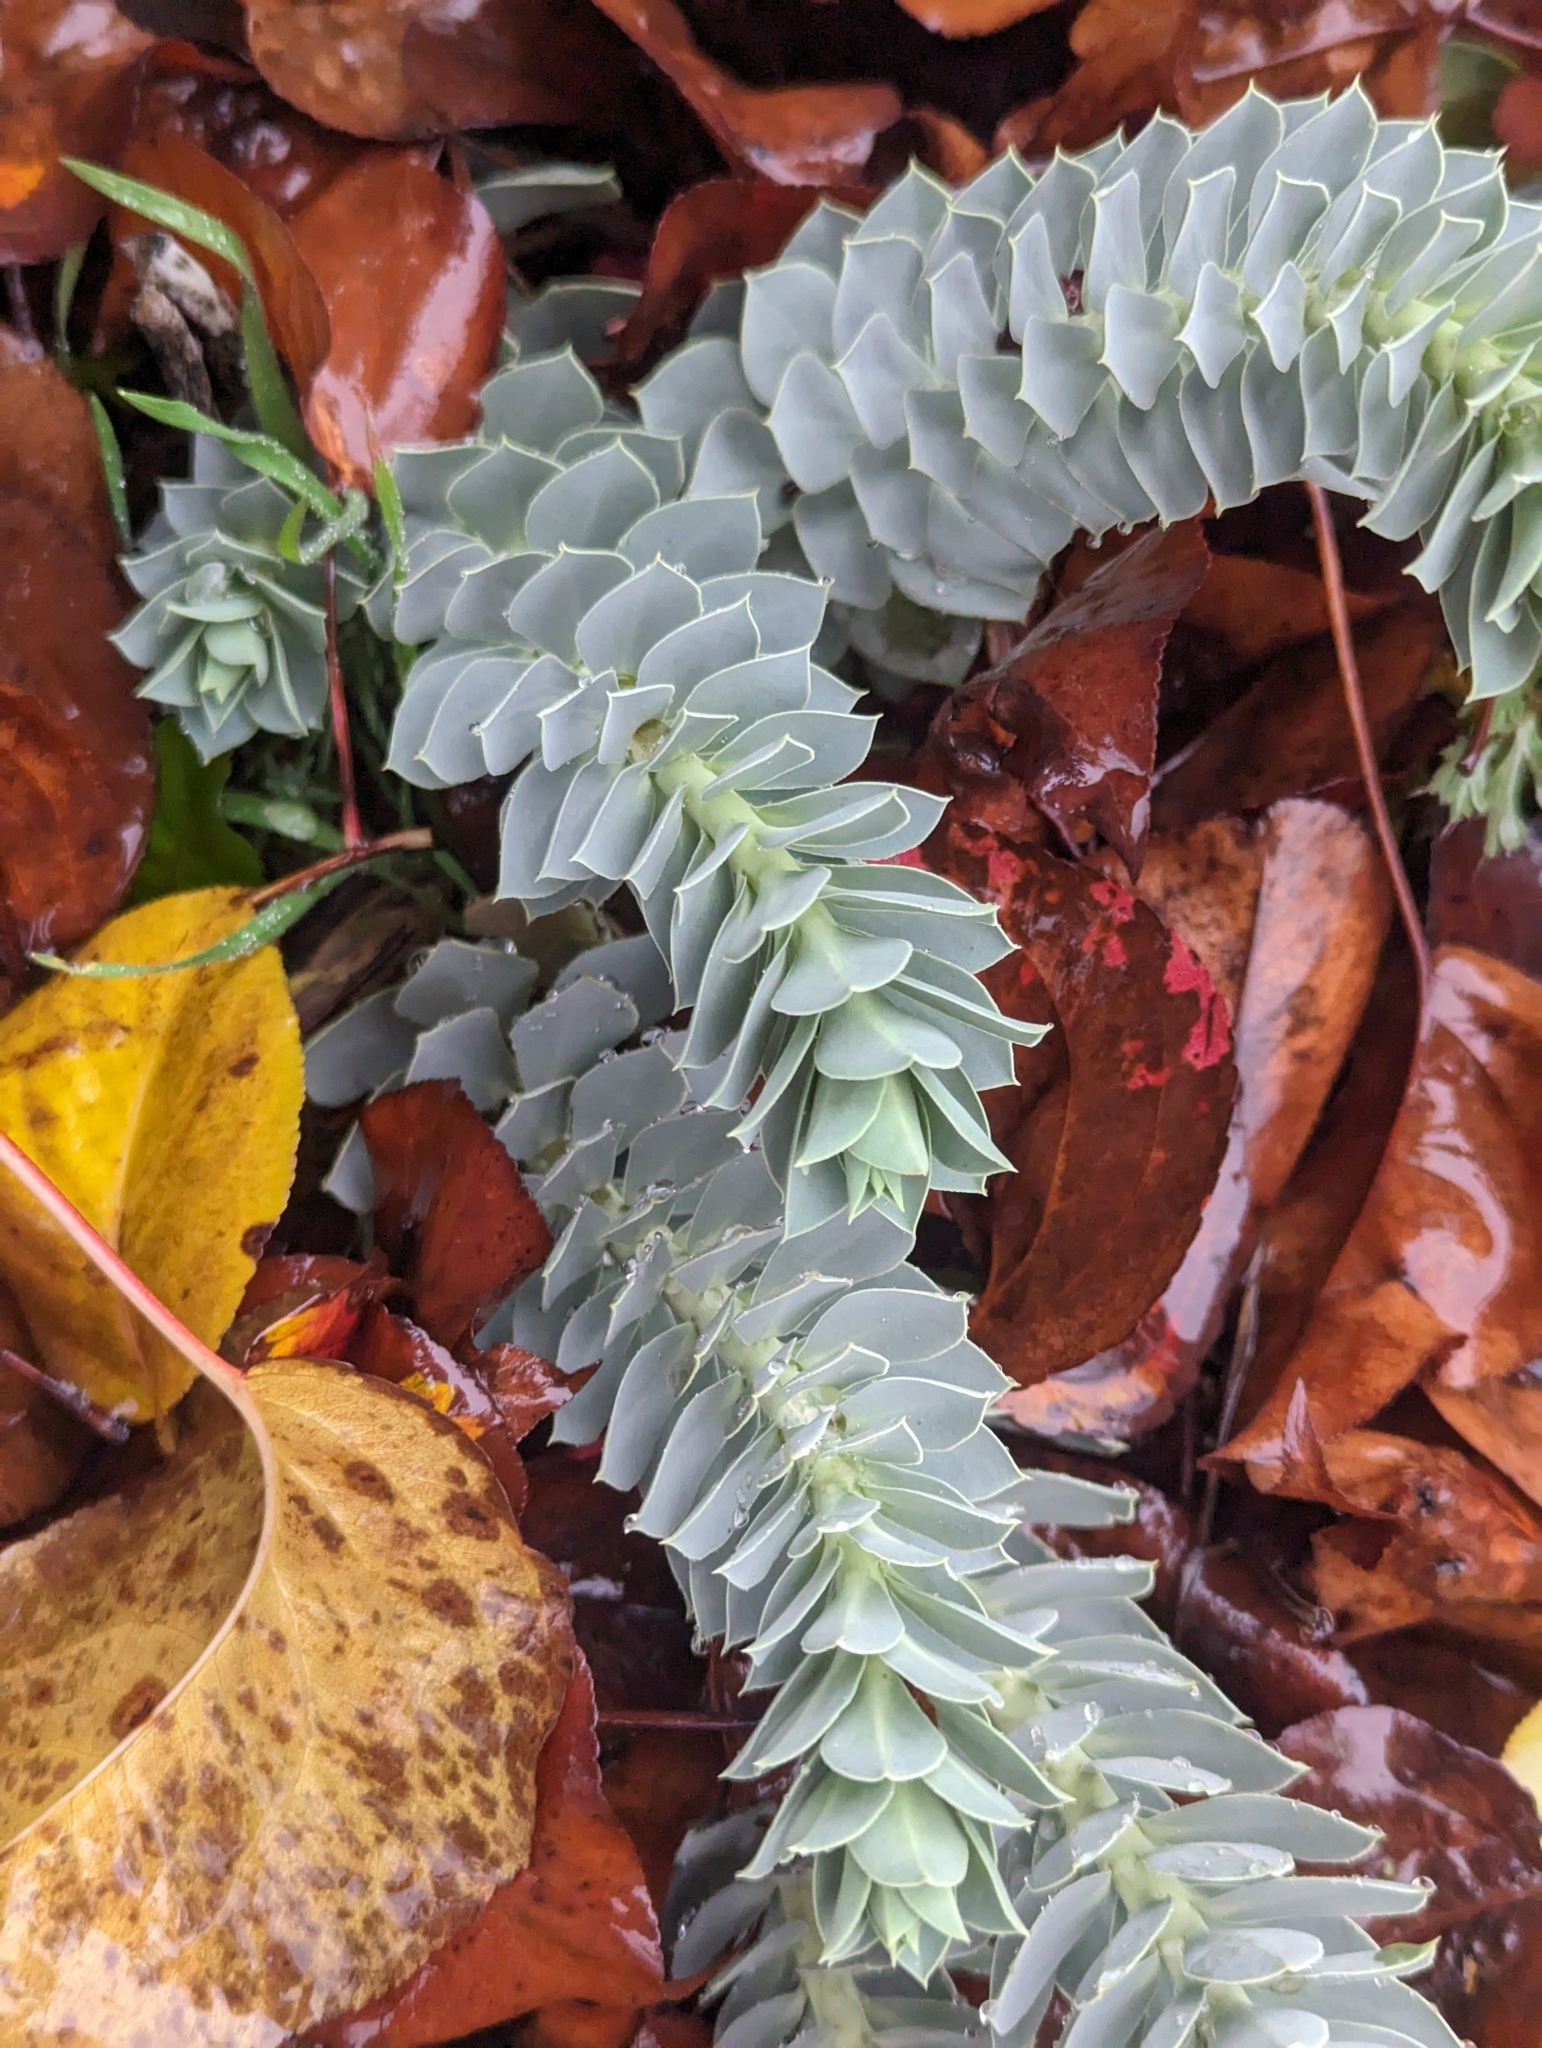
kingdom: Plantae
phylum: Tracheophyta
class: Magnoliopsida
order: Malpighiales
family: Euphorbiaceae
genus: Euphorbia
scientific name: Euphorbia myrsinites
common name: Myrtle spurge
